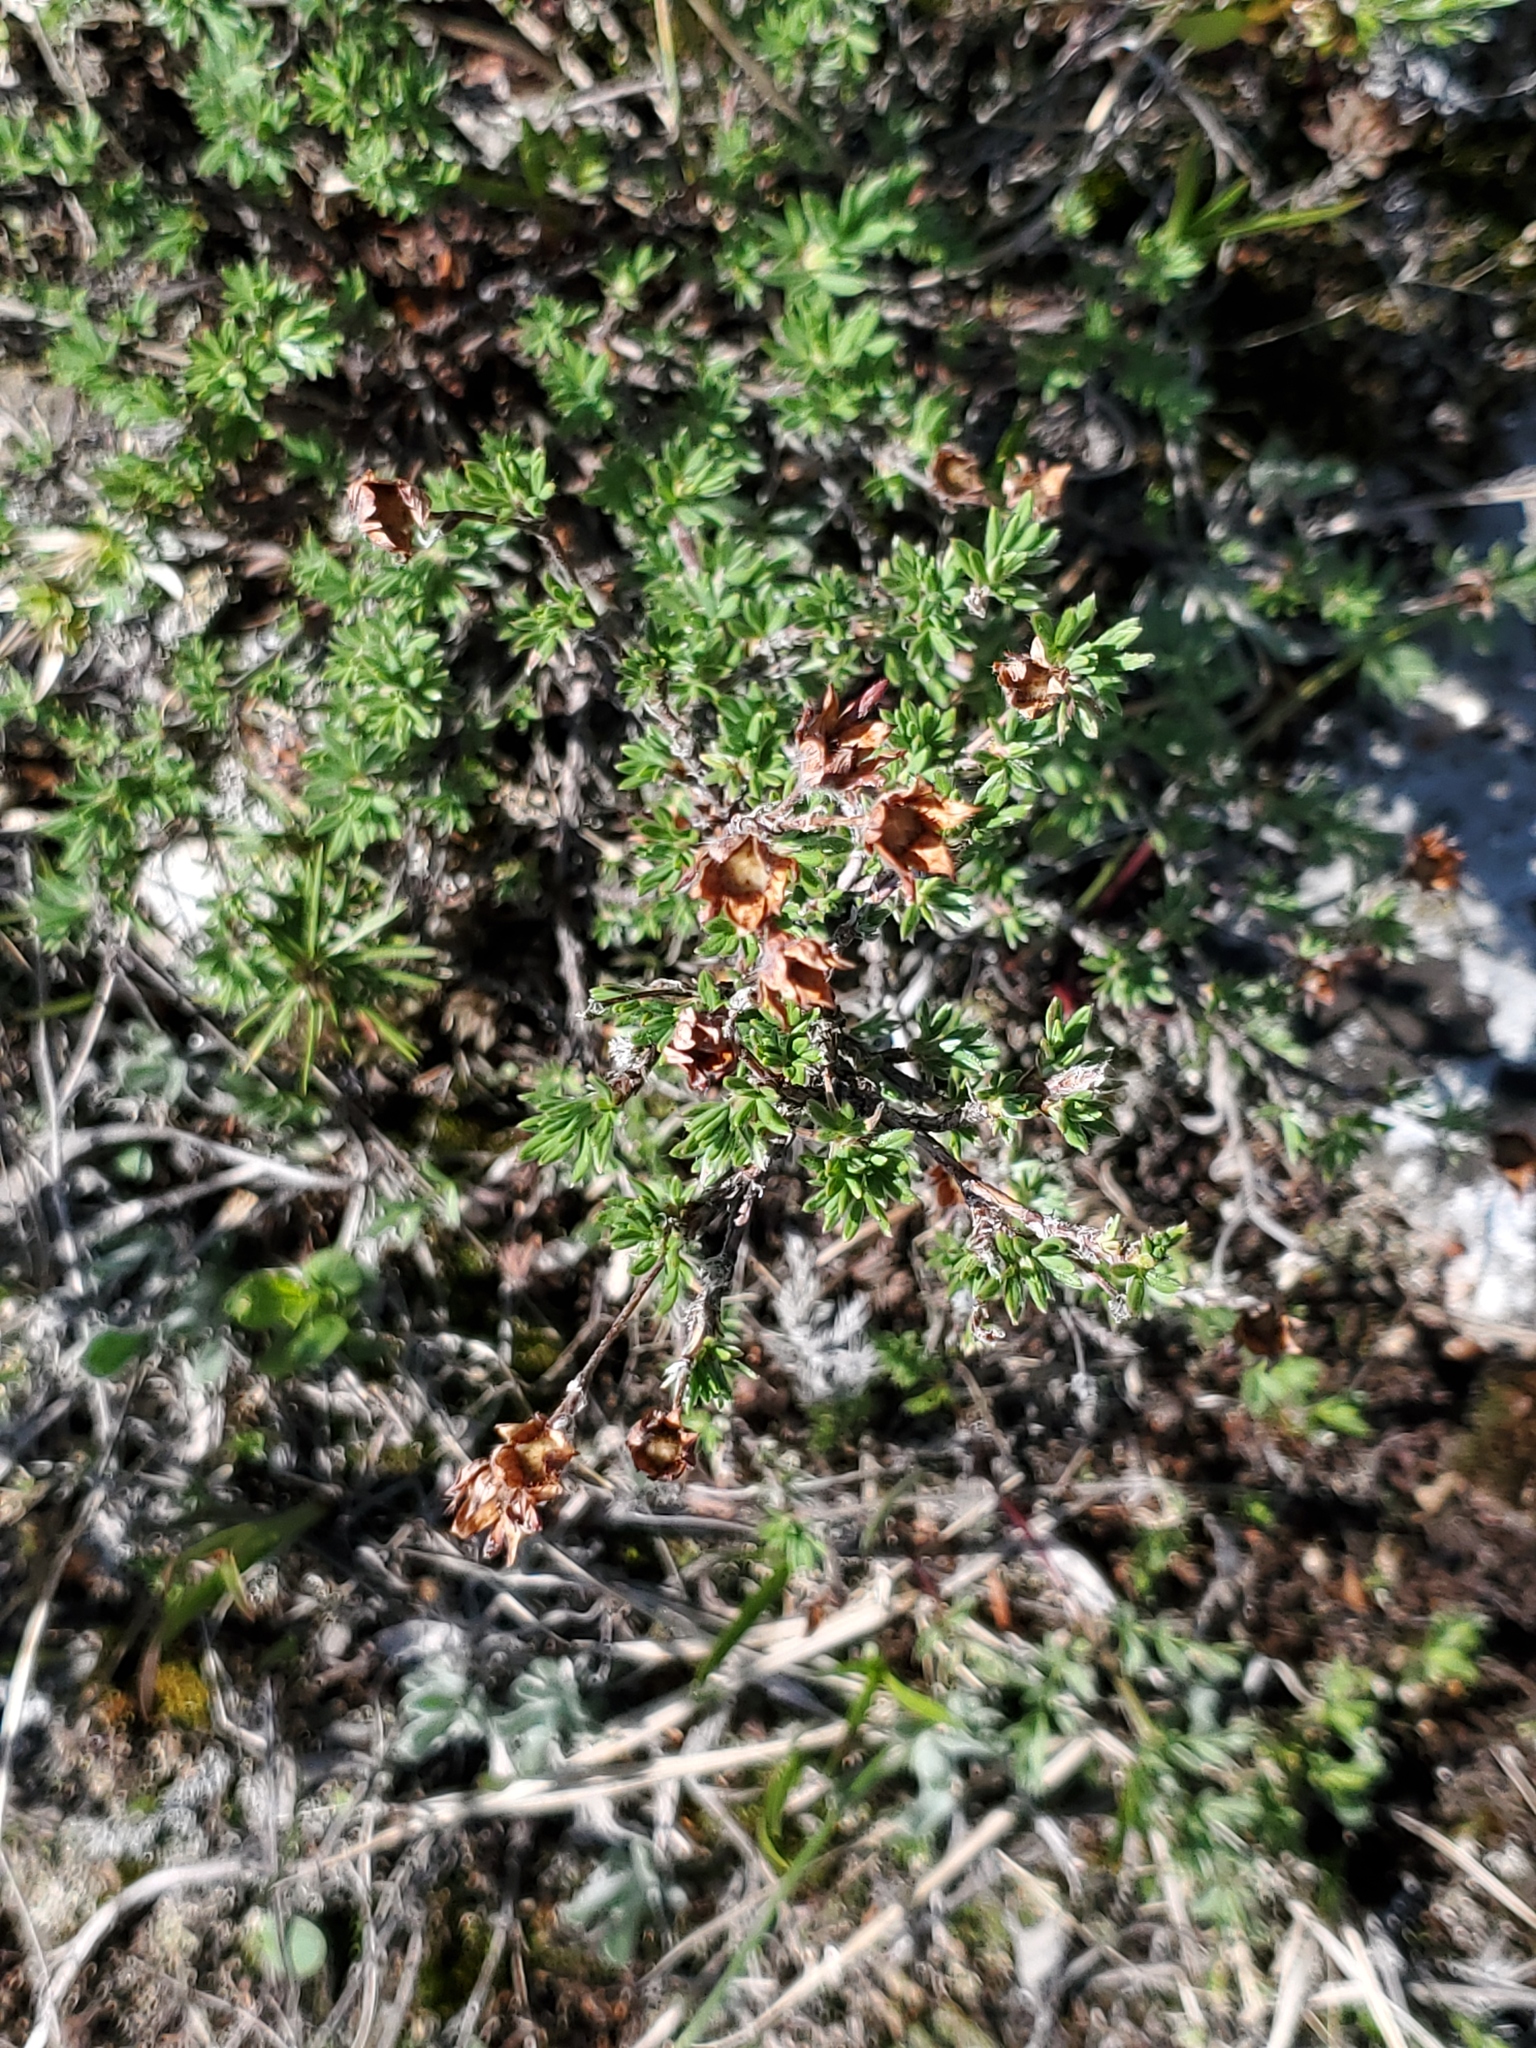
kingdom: Plantae
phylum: Tracheophyta
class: Magnoliopsida
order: Rosales
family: Rosaceae
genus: Dasiphora
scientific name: Dasiphora fruticosa
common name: Shrubby cinquefoil
